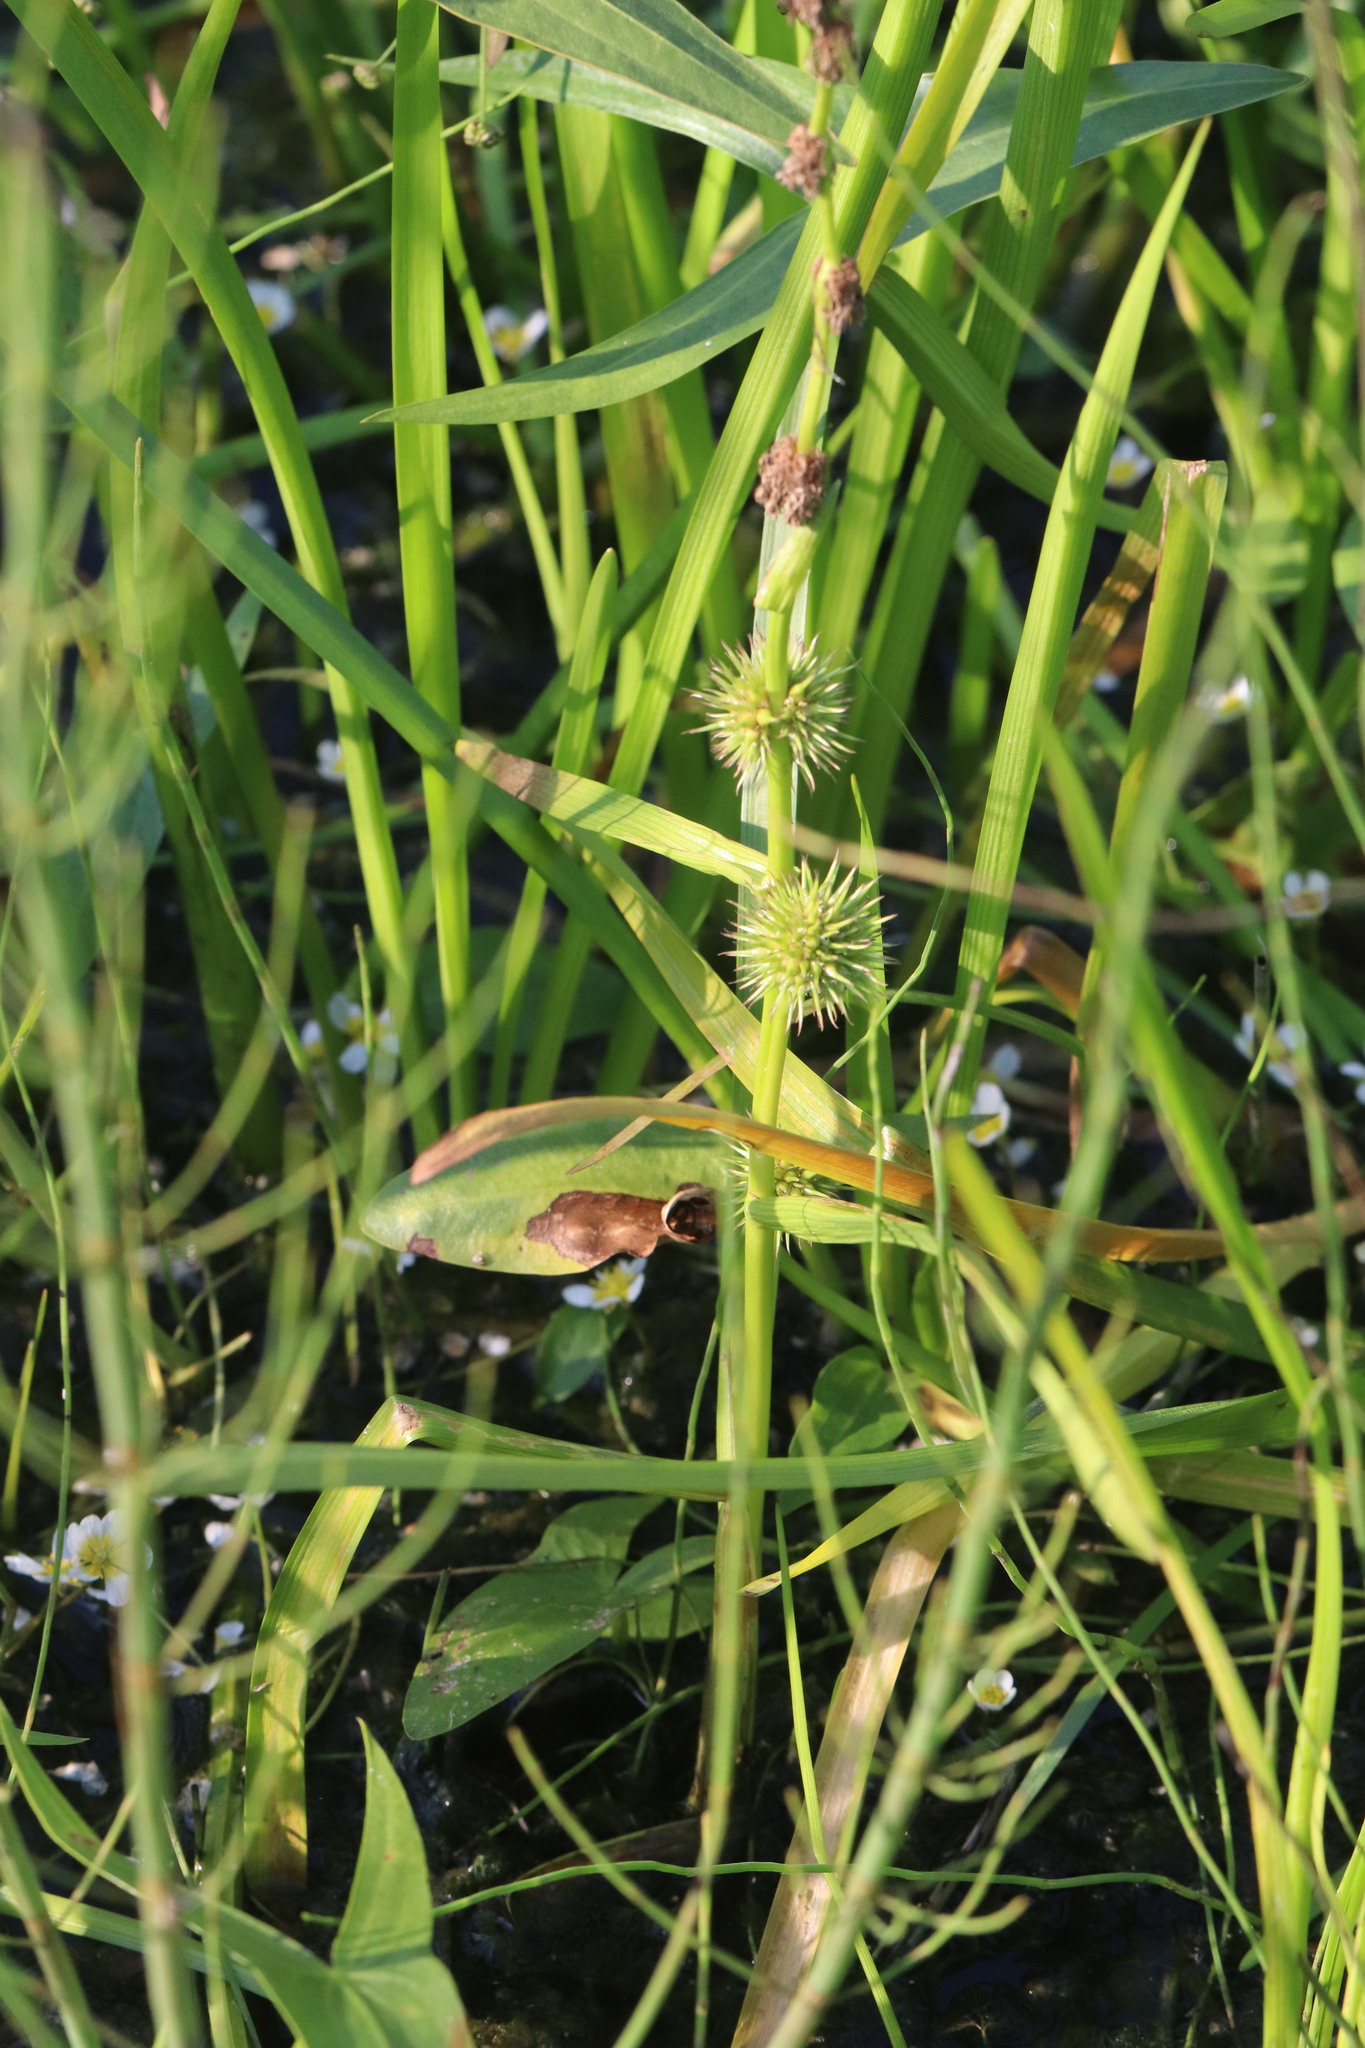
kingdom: Plantae
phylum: Tracheophyta
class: Liliopsida
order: Poales
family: Typhaceae
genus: Sparganium
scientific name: Sparganium emersum
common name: Unbranched bur-reed
